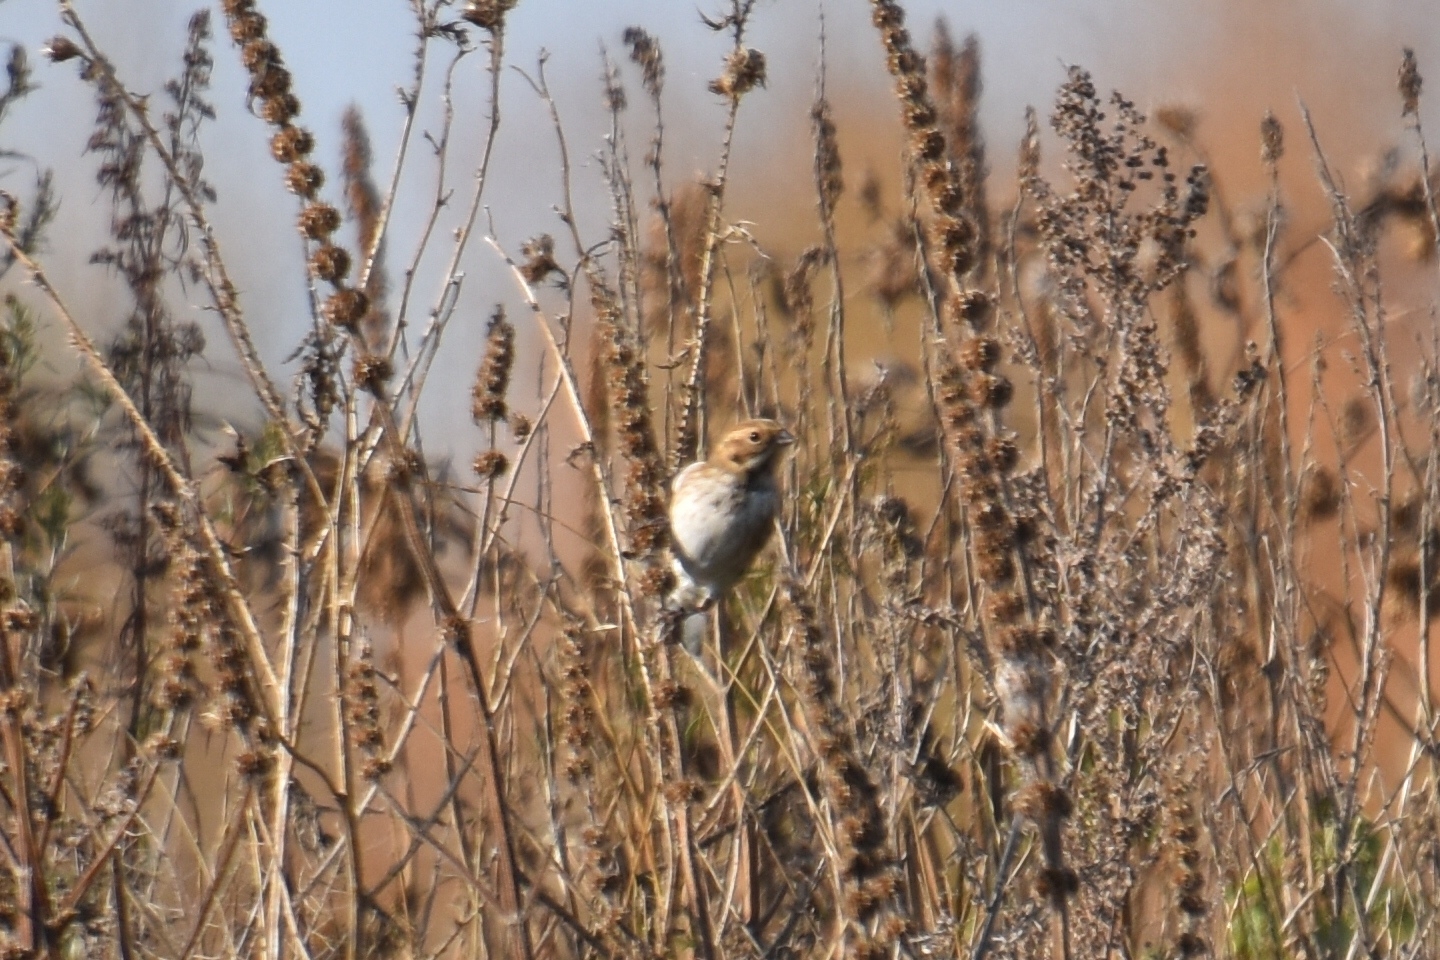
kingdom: Animalia
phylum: Chordata
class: Aves
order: Passeriformes
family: Emberizidae
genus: Emberiza
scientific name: Emberiza schoeniclus
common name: Reed bunting
